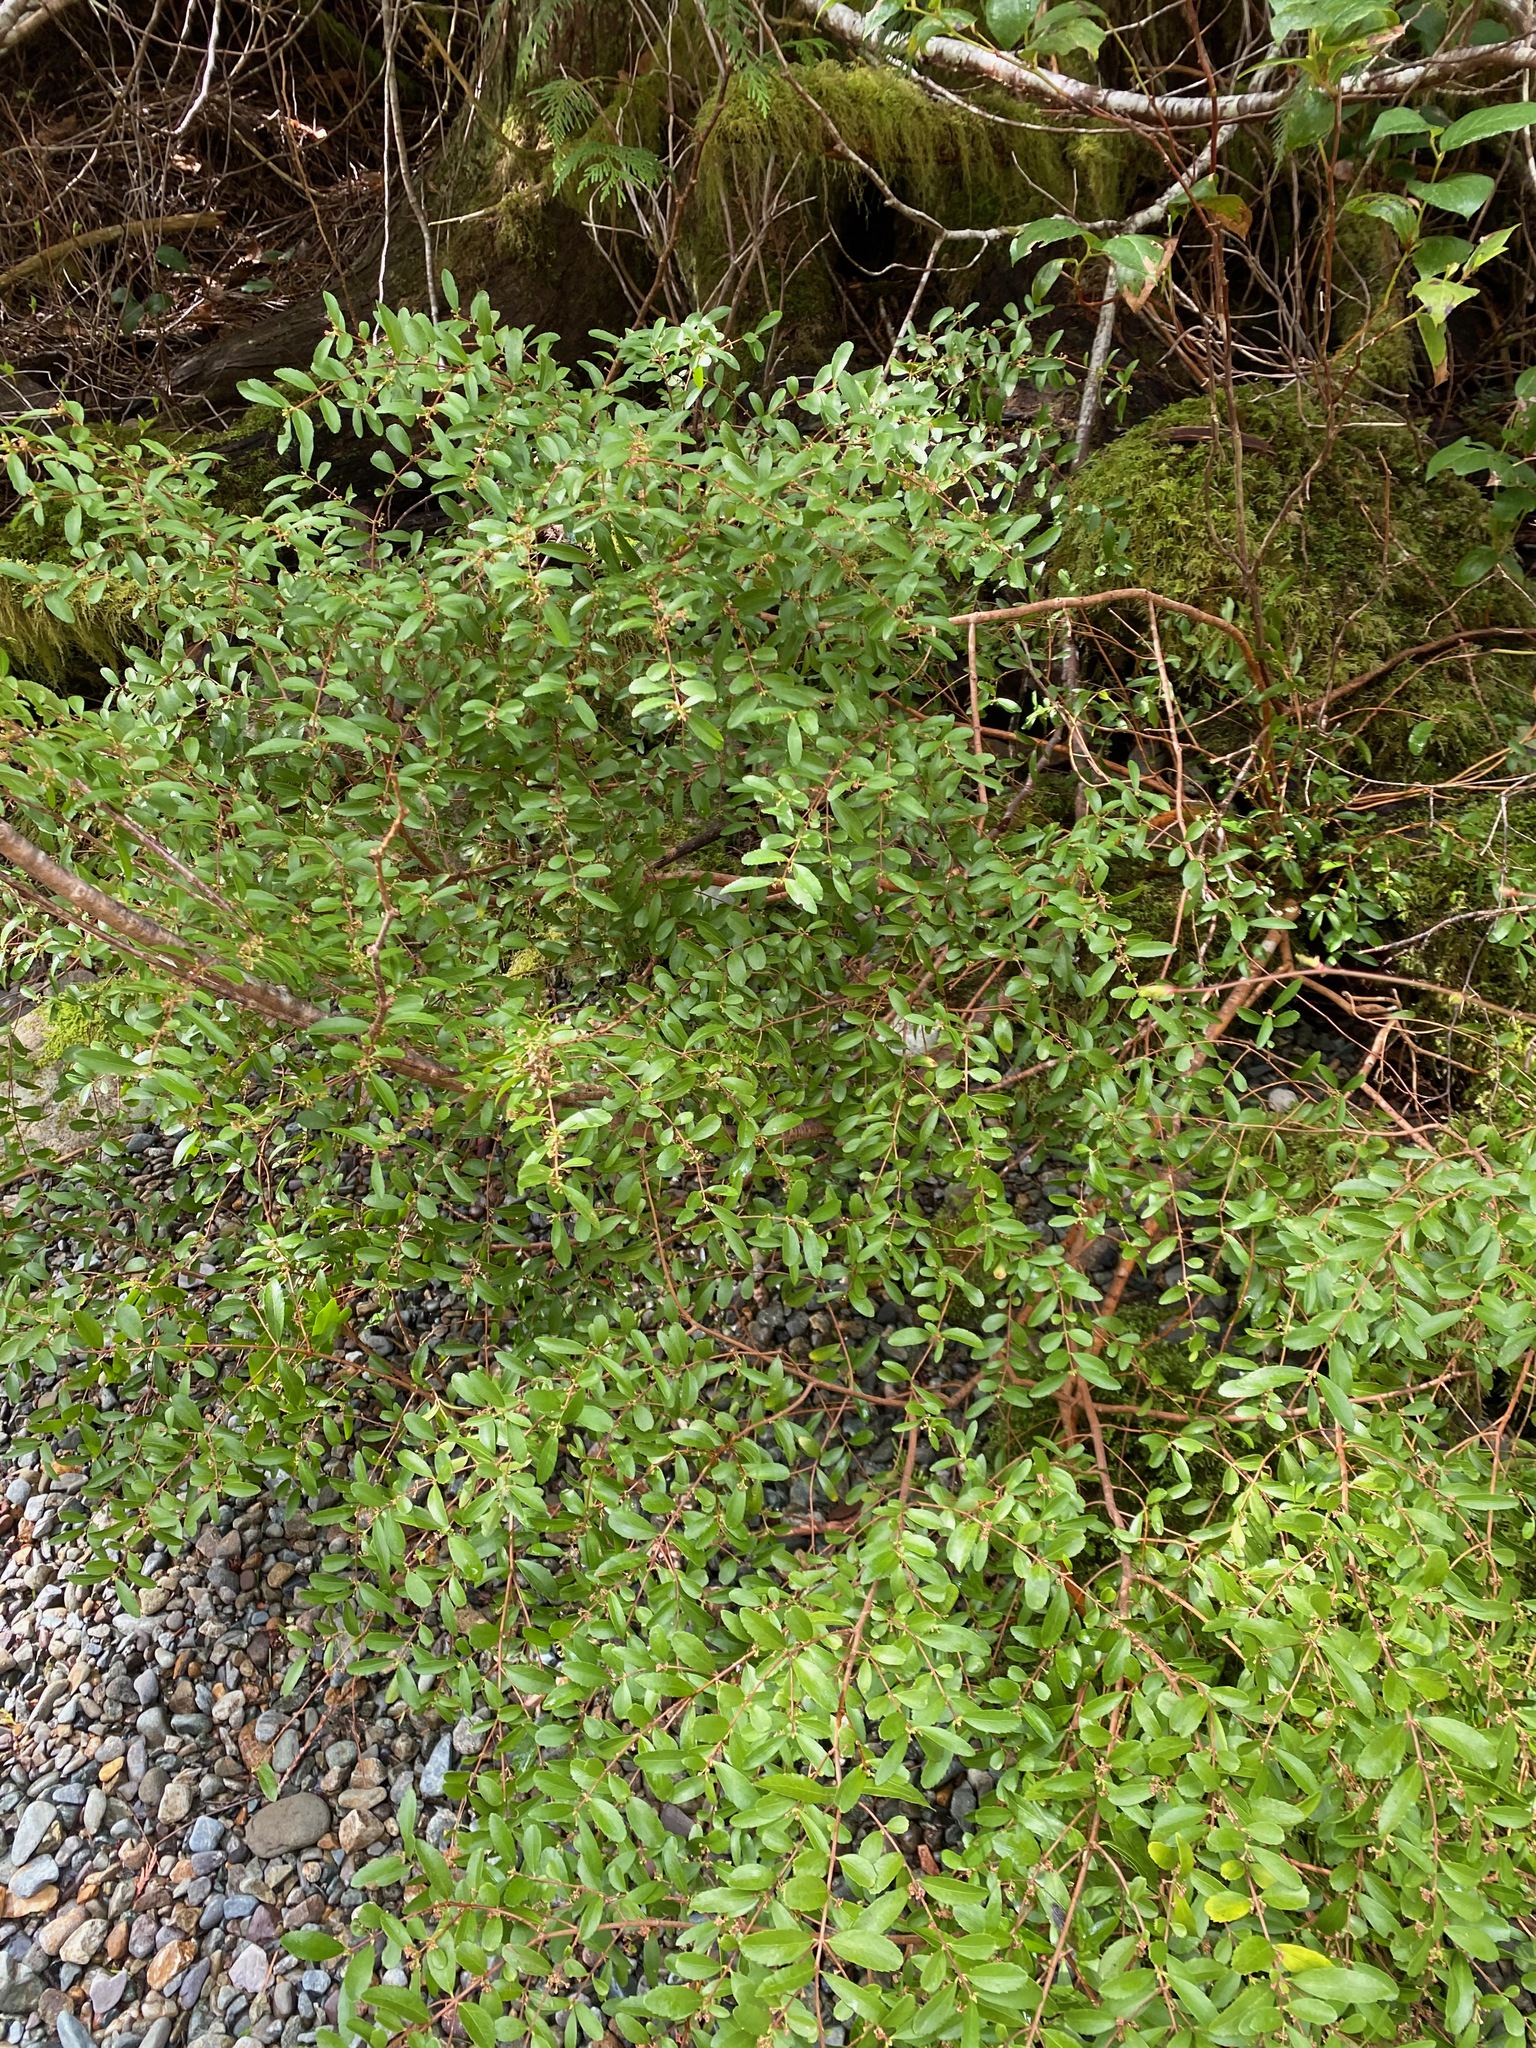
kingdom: Plantae
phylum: Tracheophyta
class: Magnoliopsida
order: Celastrales
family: Celastraceae
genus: Paxistima
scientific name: Paxistima myrsinites
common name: Mountain-lover
